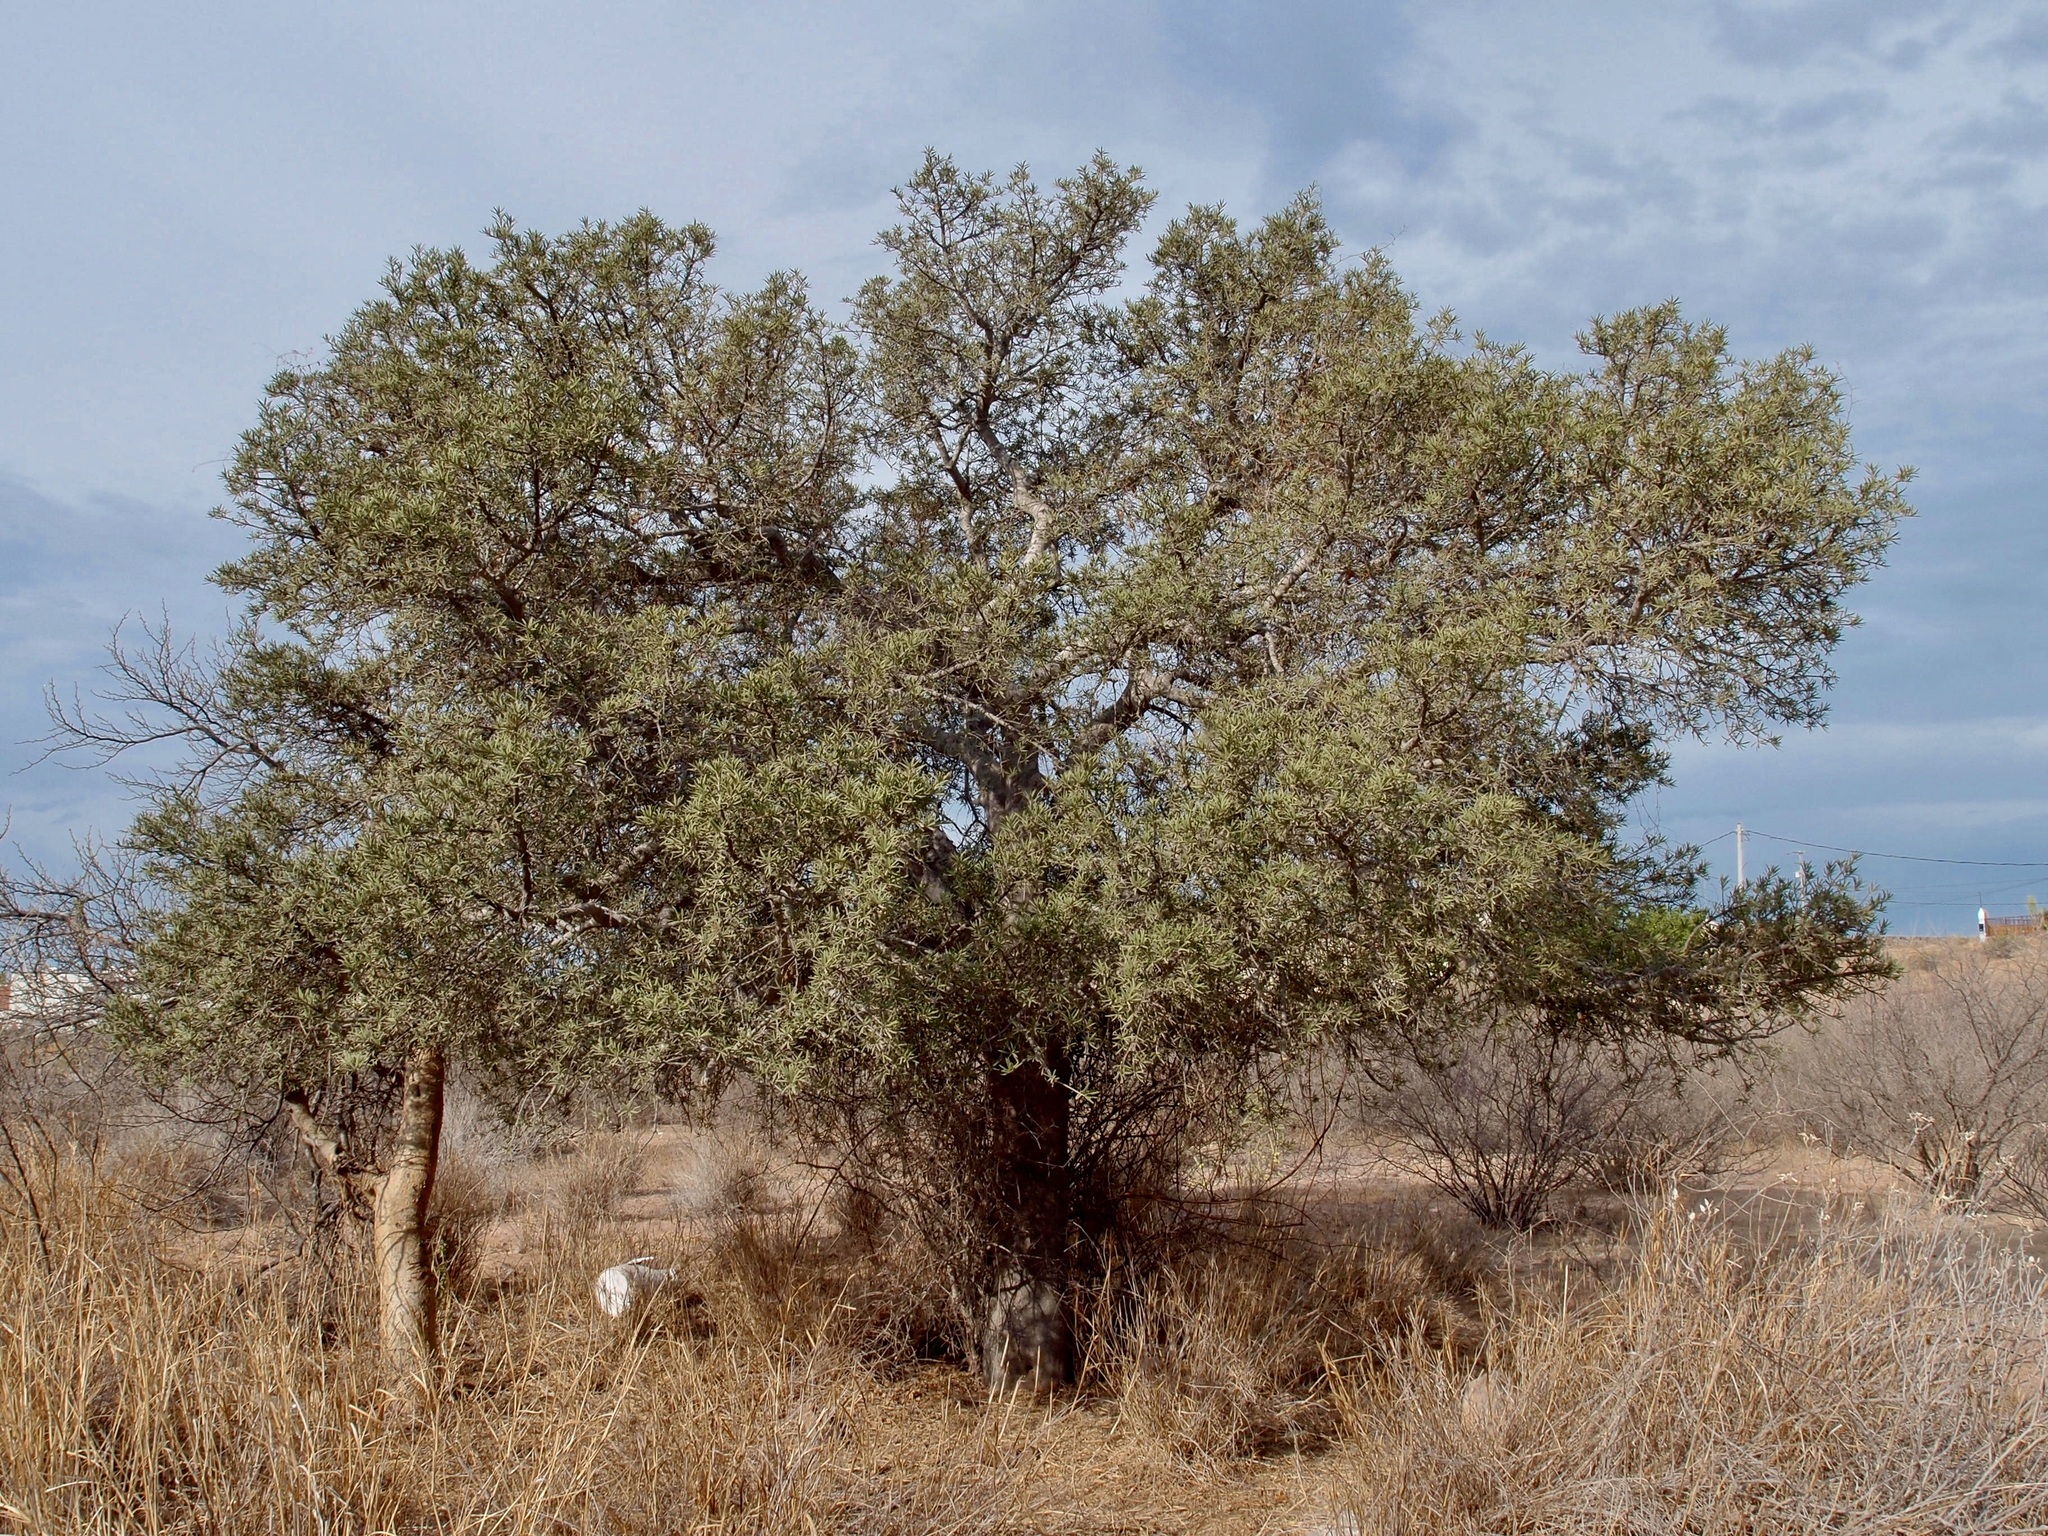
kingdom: Plantae
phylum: Tracheophyta
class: Magnoliopsida
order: Brassicales
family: Stixaceae
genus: Forchhammeria
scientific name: Forchhammeria watsonii
